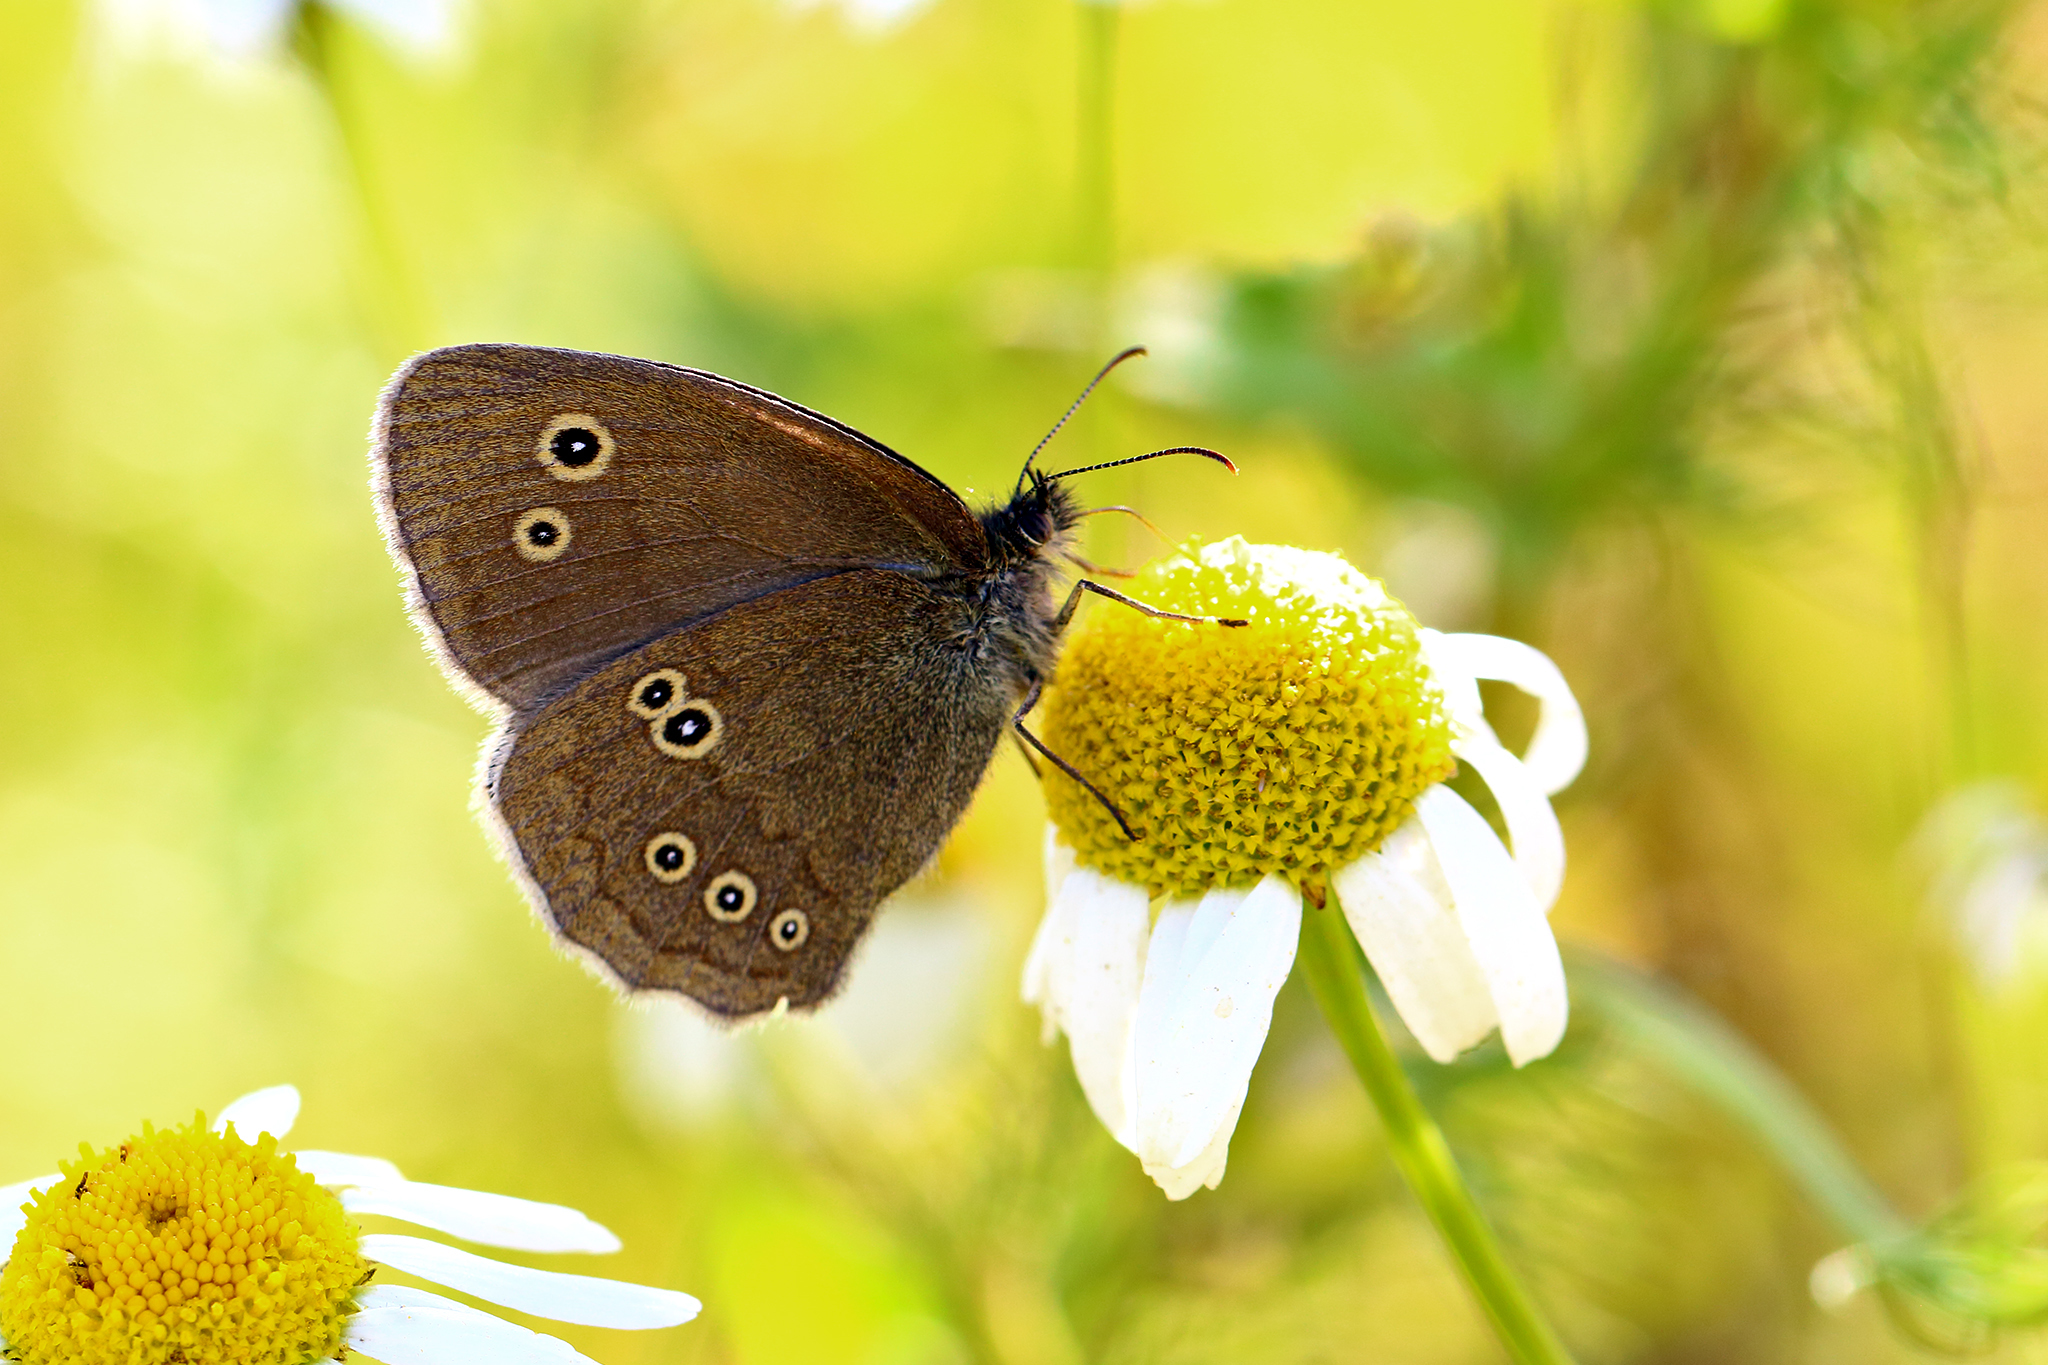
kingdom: Animalia
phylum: Arthropoda
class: Insecta
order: Lepidoptera
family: Nymphalidae
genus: Aphantopus
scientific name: Aphantopus hyperantus
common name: Ringlet
